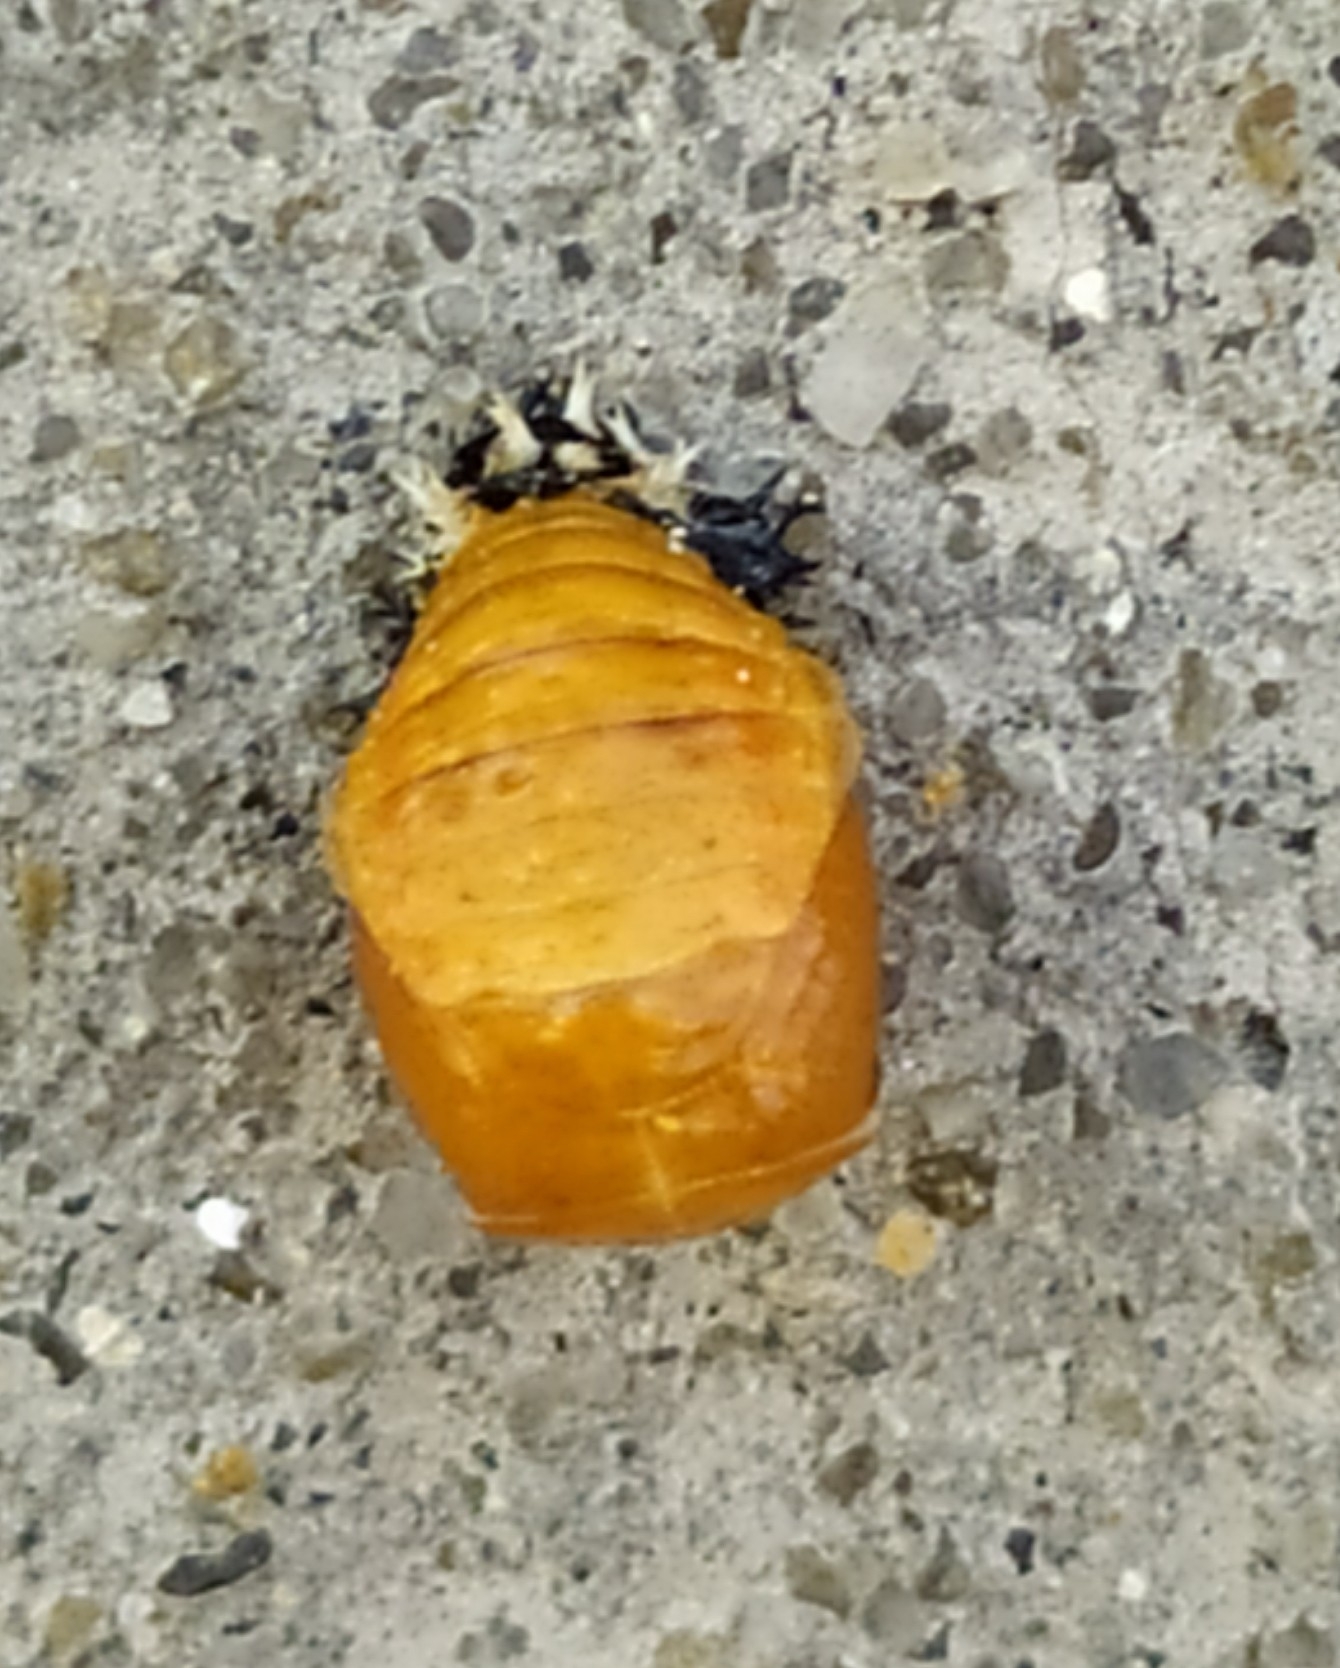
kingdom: Animalia
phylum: Arthropoda
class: Insecta
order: Coleoptera
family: Coccinellidae
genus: Harmonia
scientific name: Harmonia axyridis
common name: Harlequin ladybird
